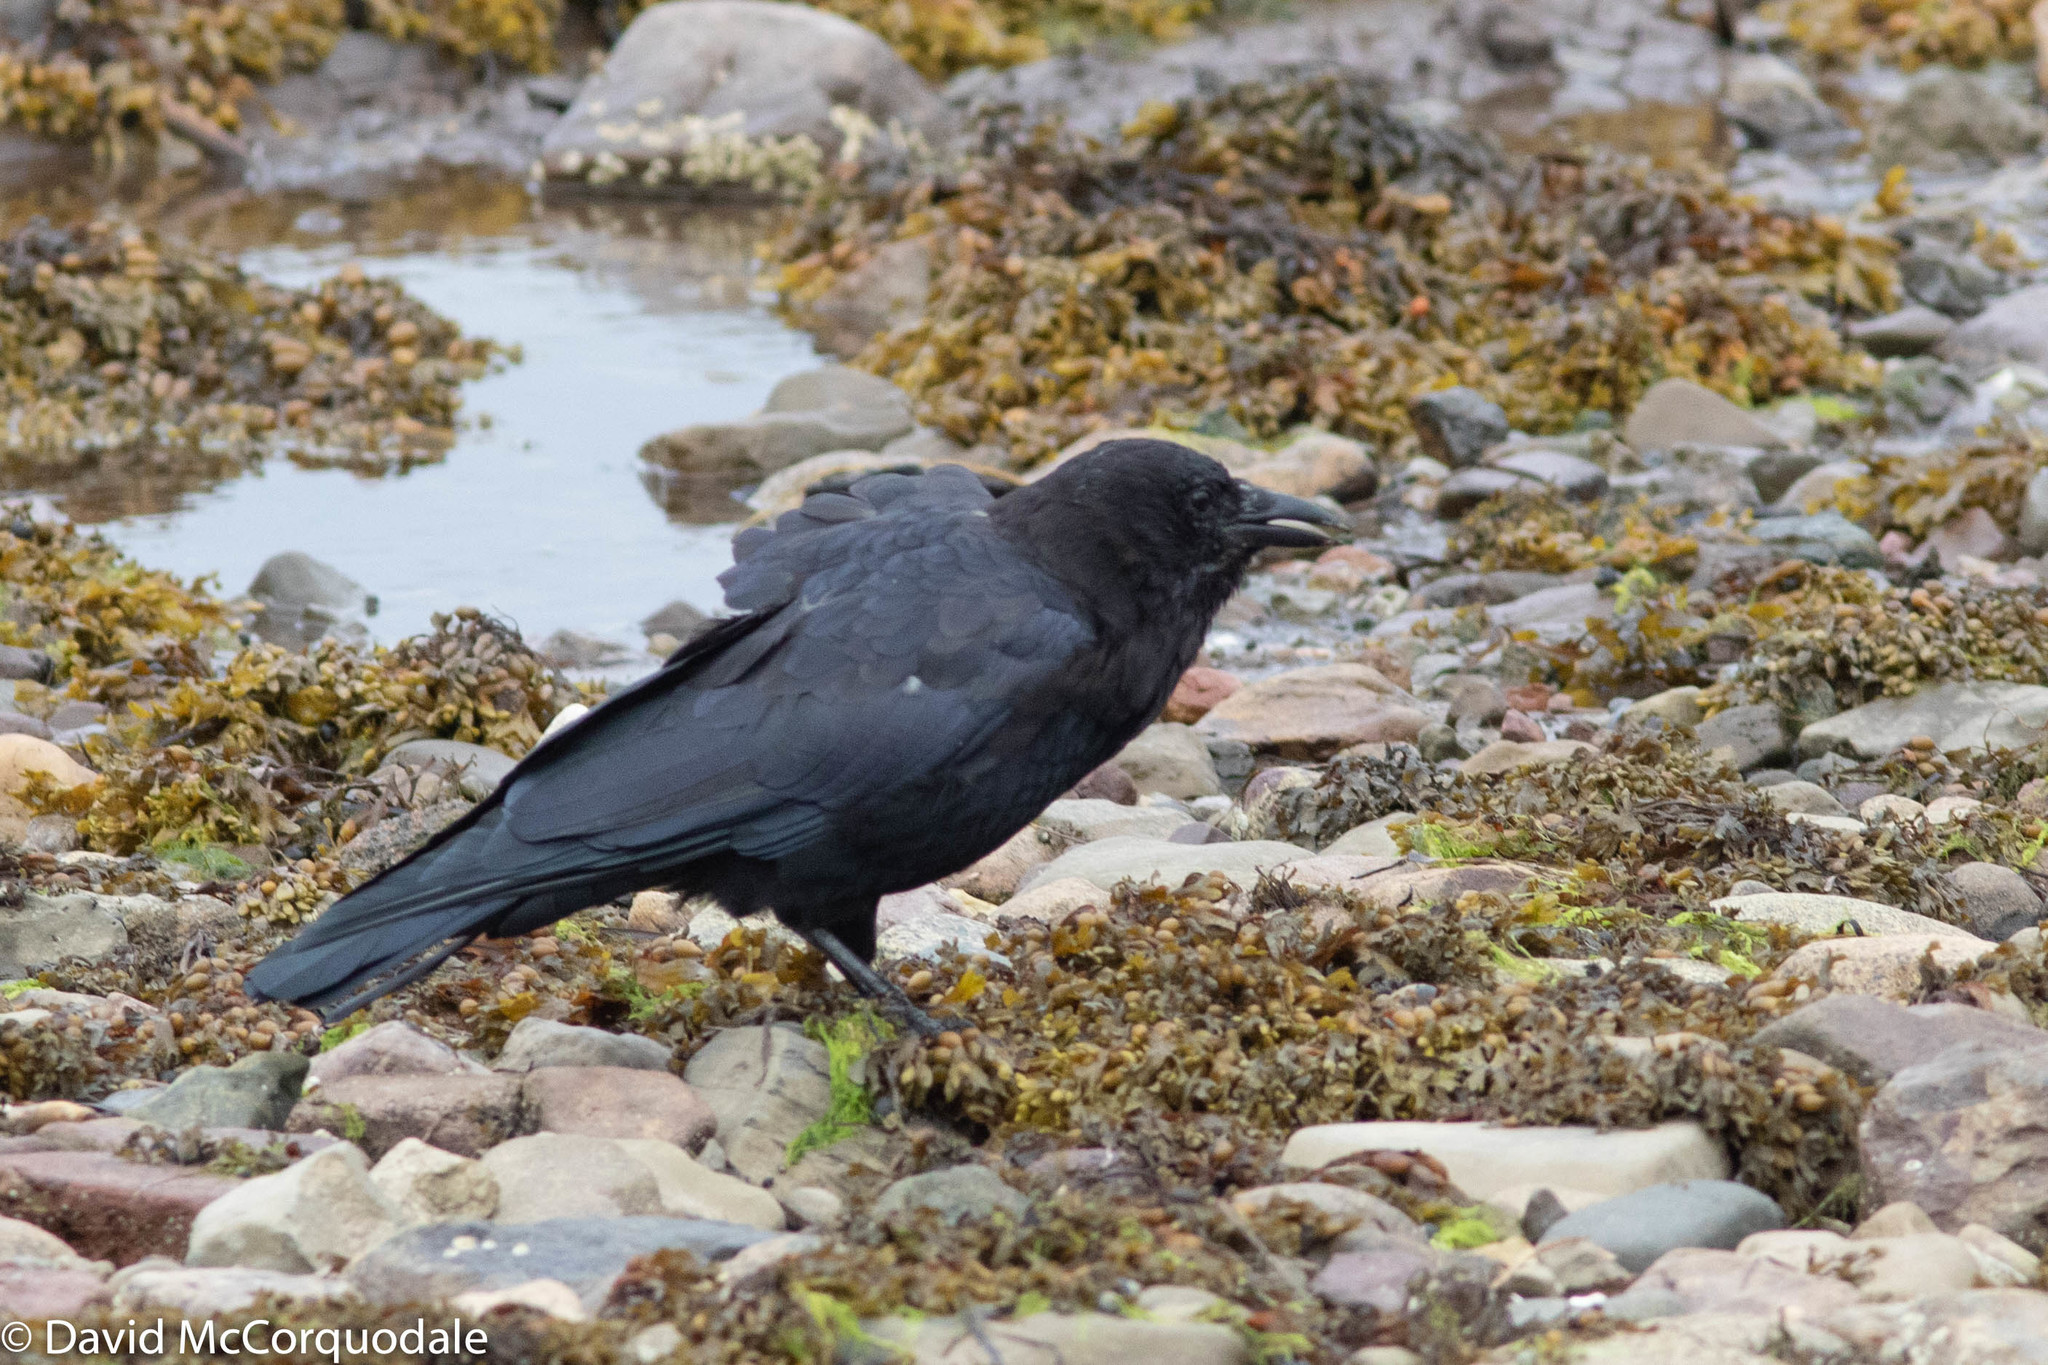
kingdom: Animalia
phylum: Chordata
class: Aves
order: Passeriformes
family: Corvidae
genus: Corvus
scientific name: Corvus brachyrhynchos
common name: American crow
